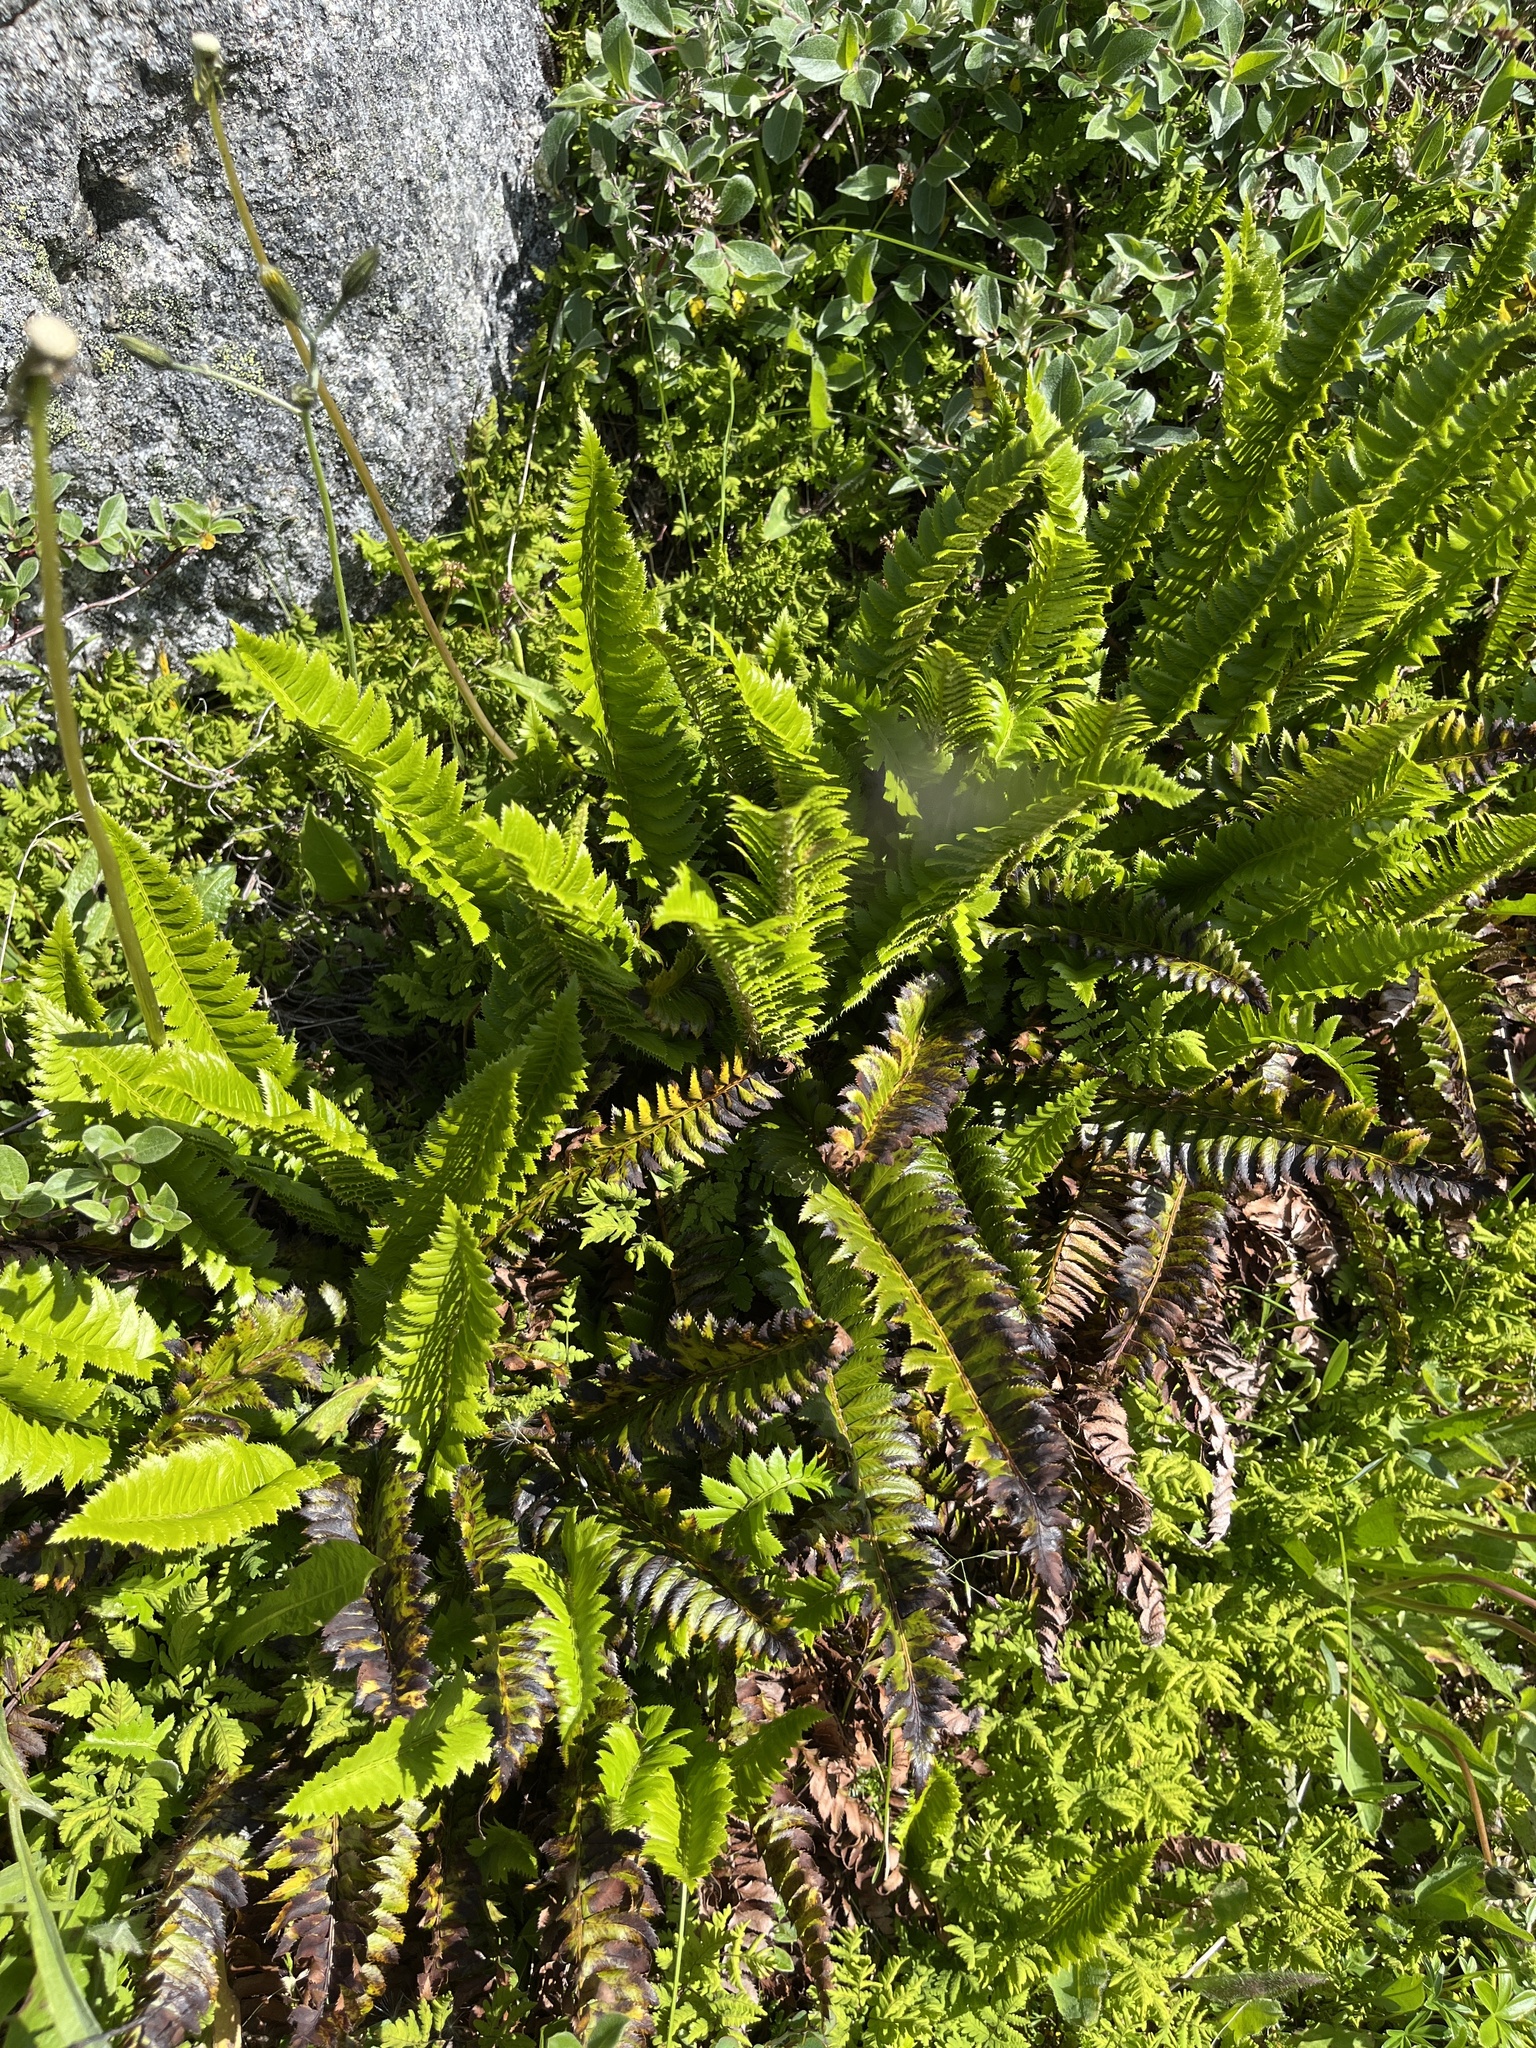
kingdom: Plantae
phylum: Tracheophyta
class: Polypodiopsida
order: Polypodiales
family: Dryopteridaceae
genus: Polystichum
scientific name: Polystichum lonchitis
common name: Holly fern
